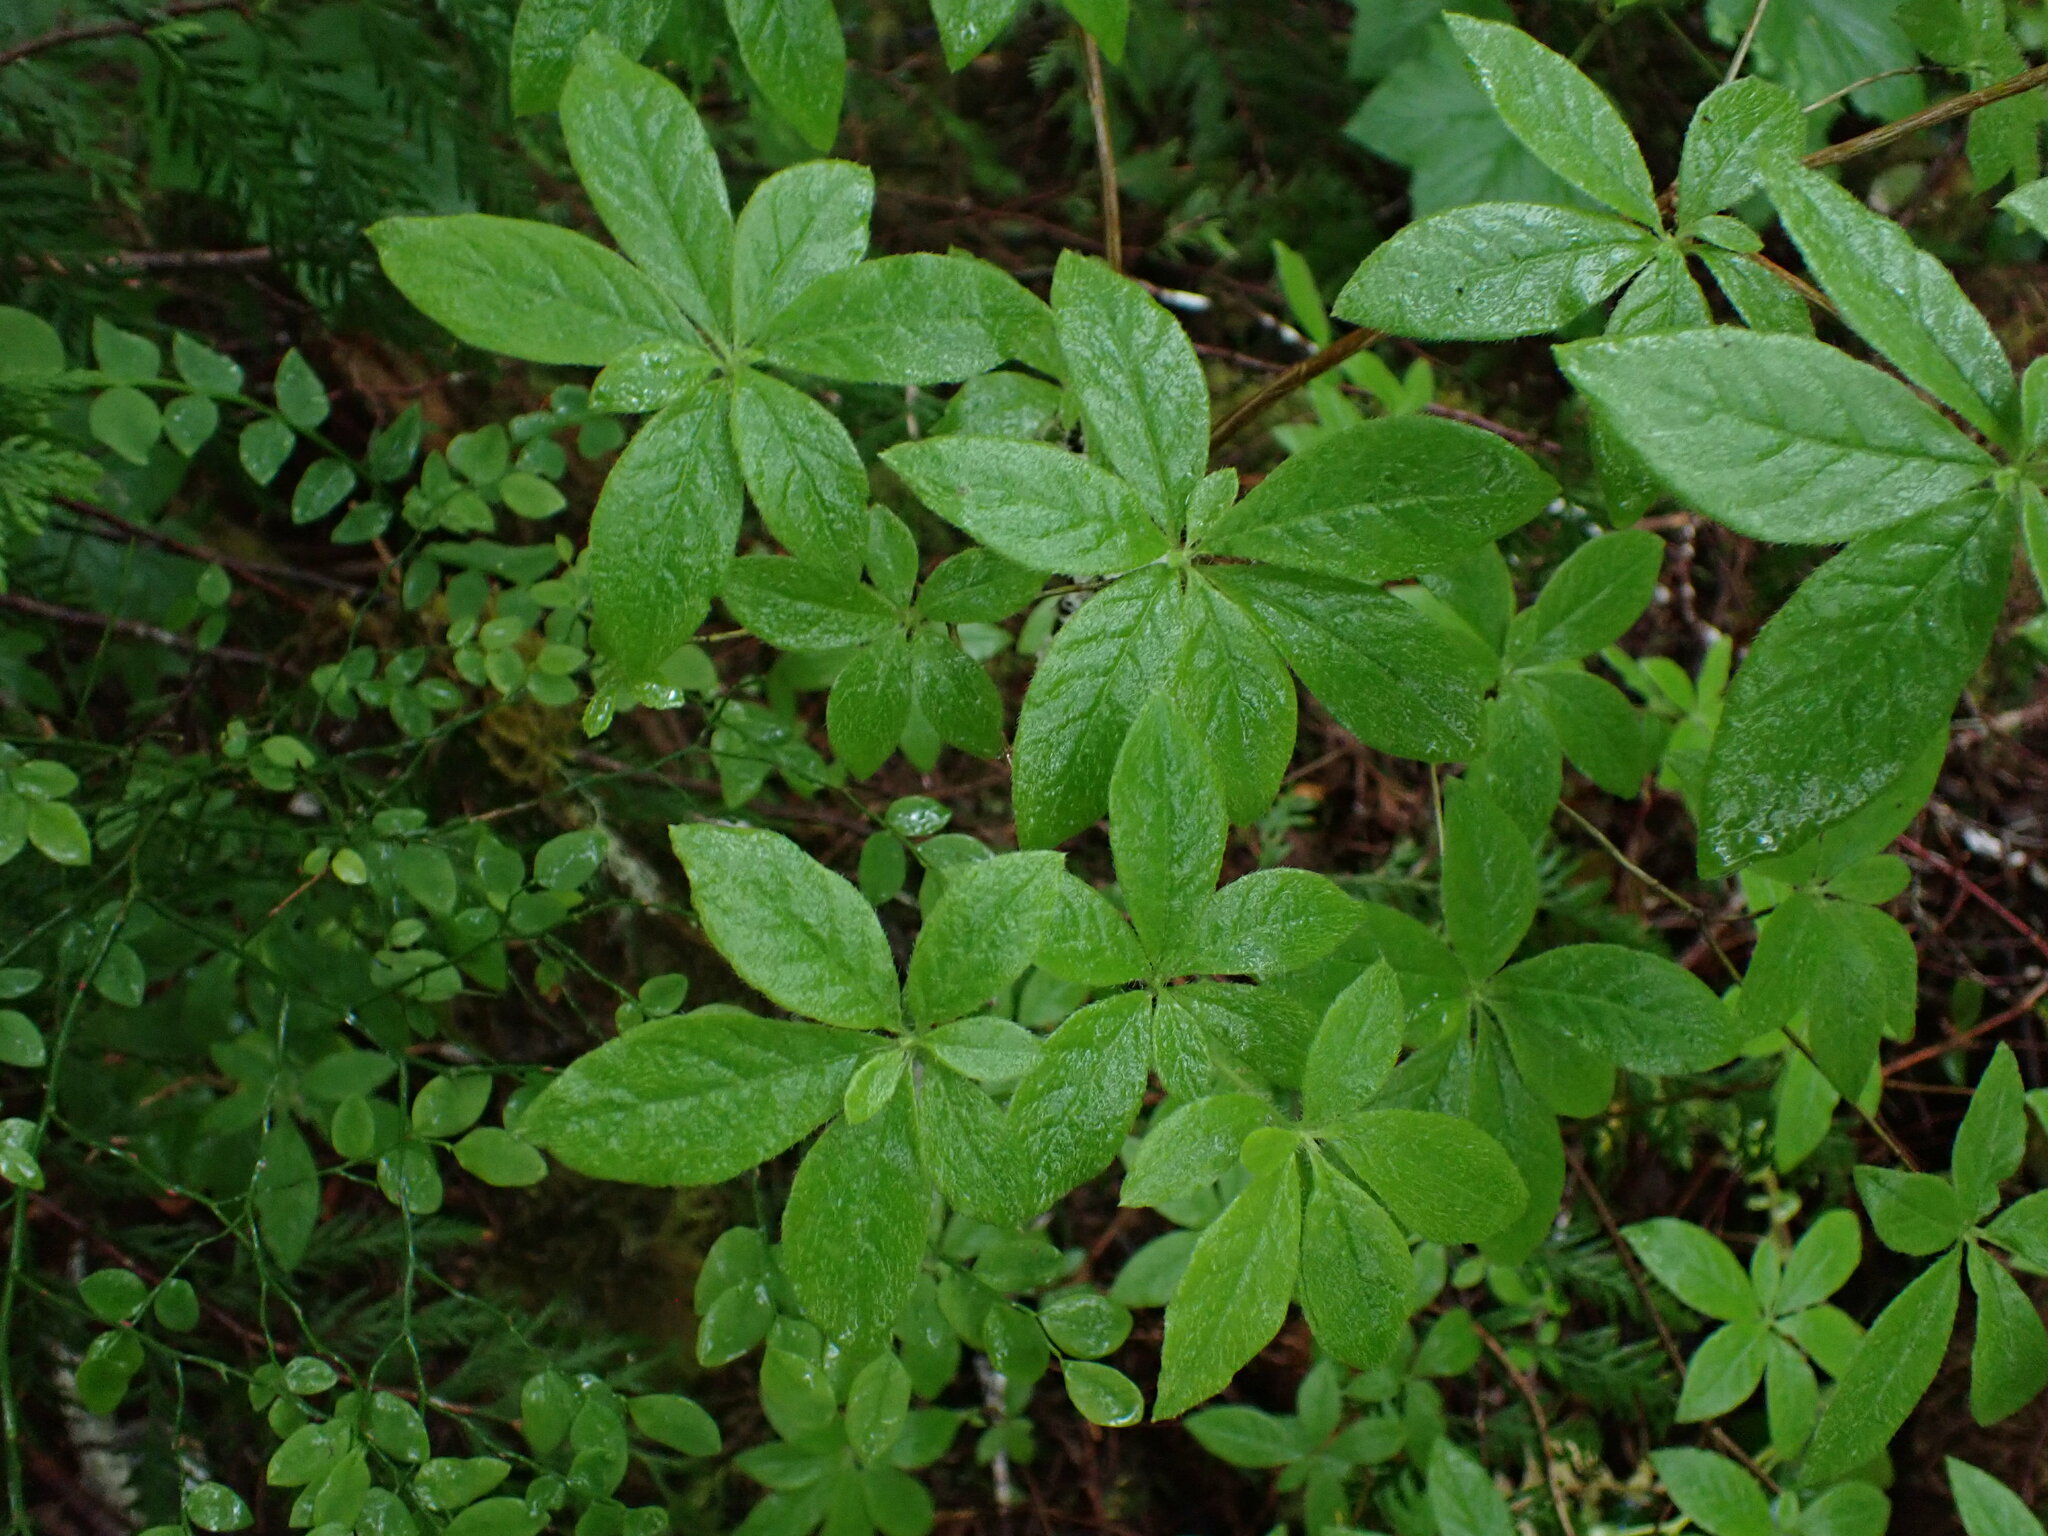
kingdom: Plantae
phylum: Tracheophyta
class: Magnoliopsida
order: Ericales
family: Ericaceae
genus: Rhododendron
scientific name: Rhododendron menziesii
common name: Pacific menziesia
